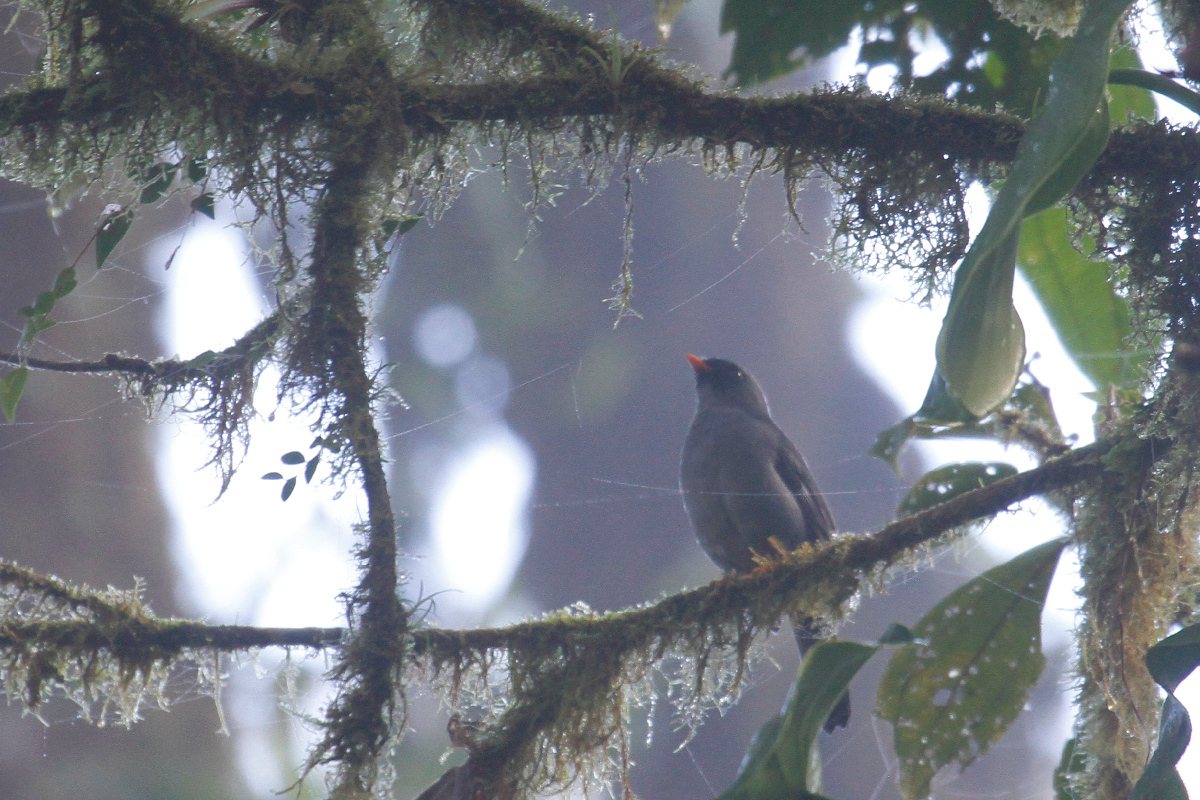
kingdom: Animalia
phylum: Chordata
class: Aves
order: Passeriformes
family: Turdidae
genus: Myadestes
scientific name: Myadestes melanops
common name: Black-faced solitaire
